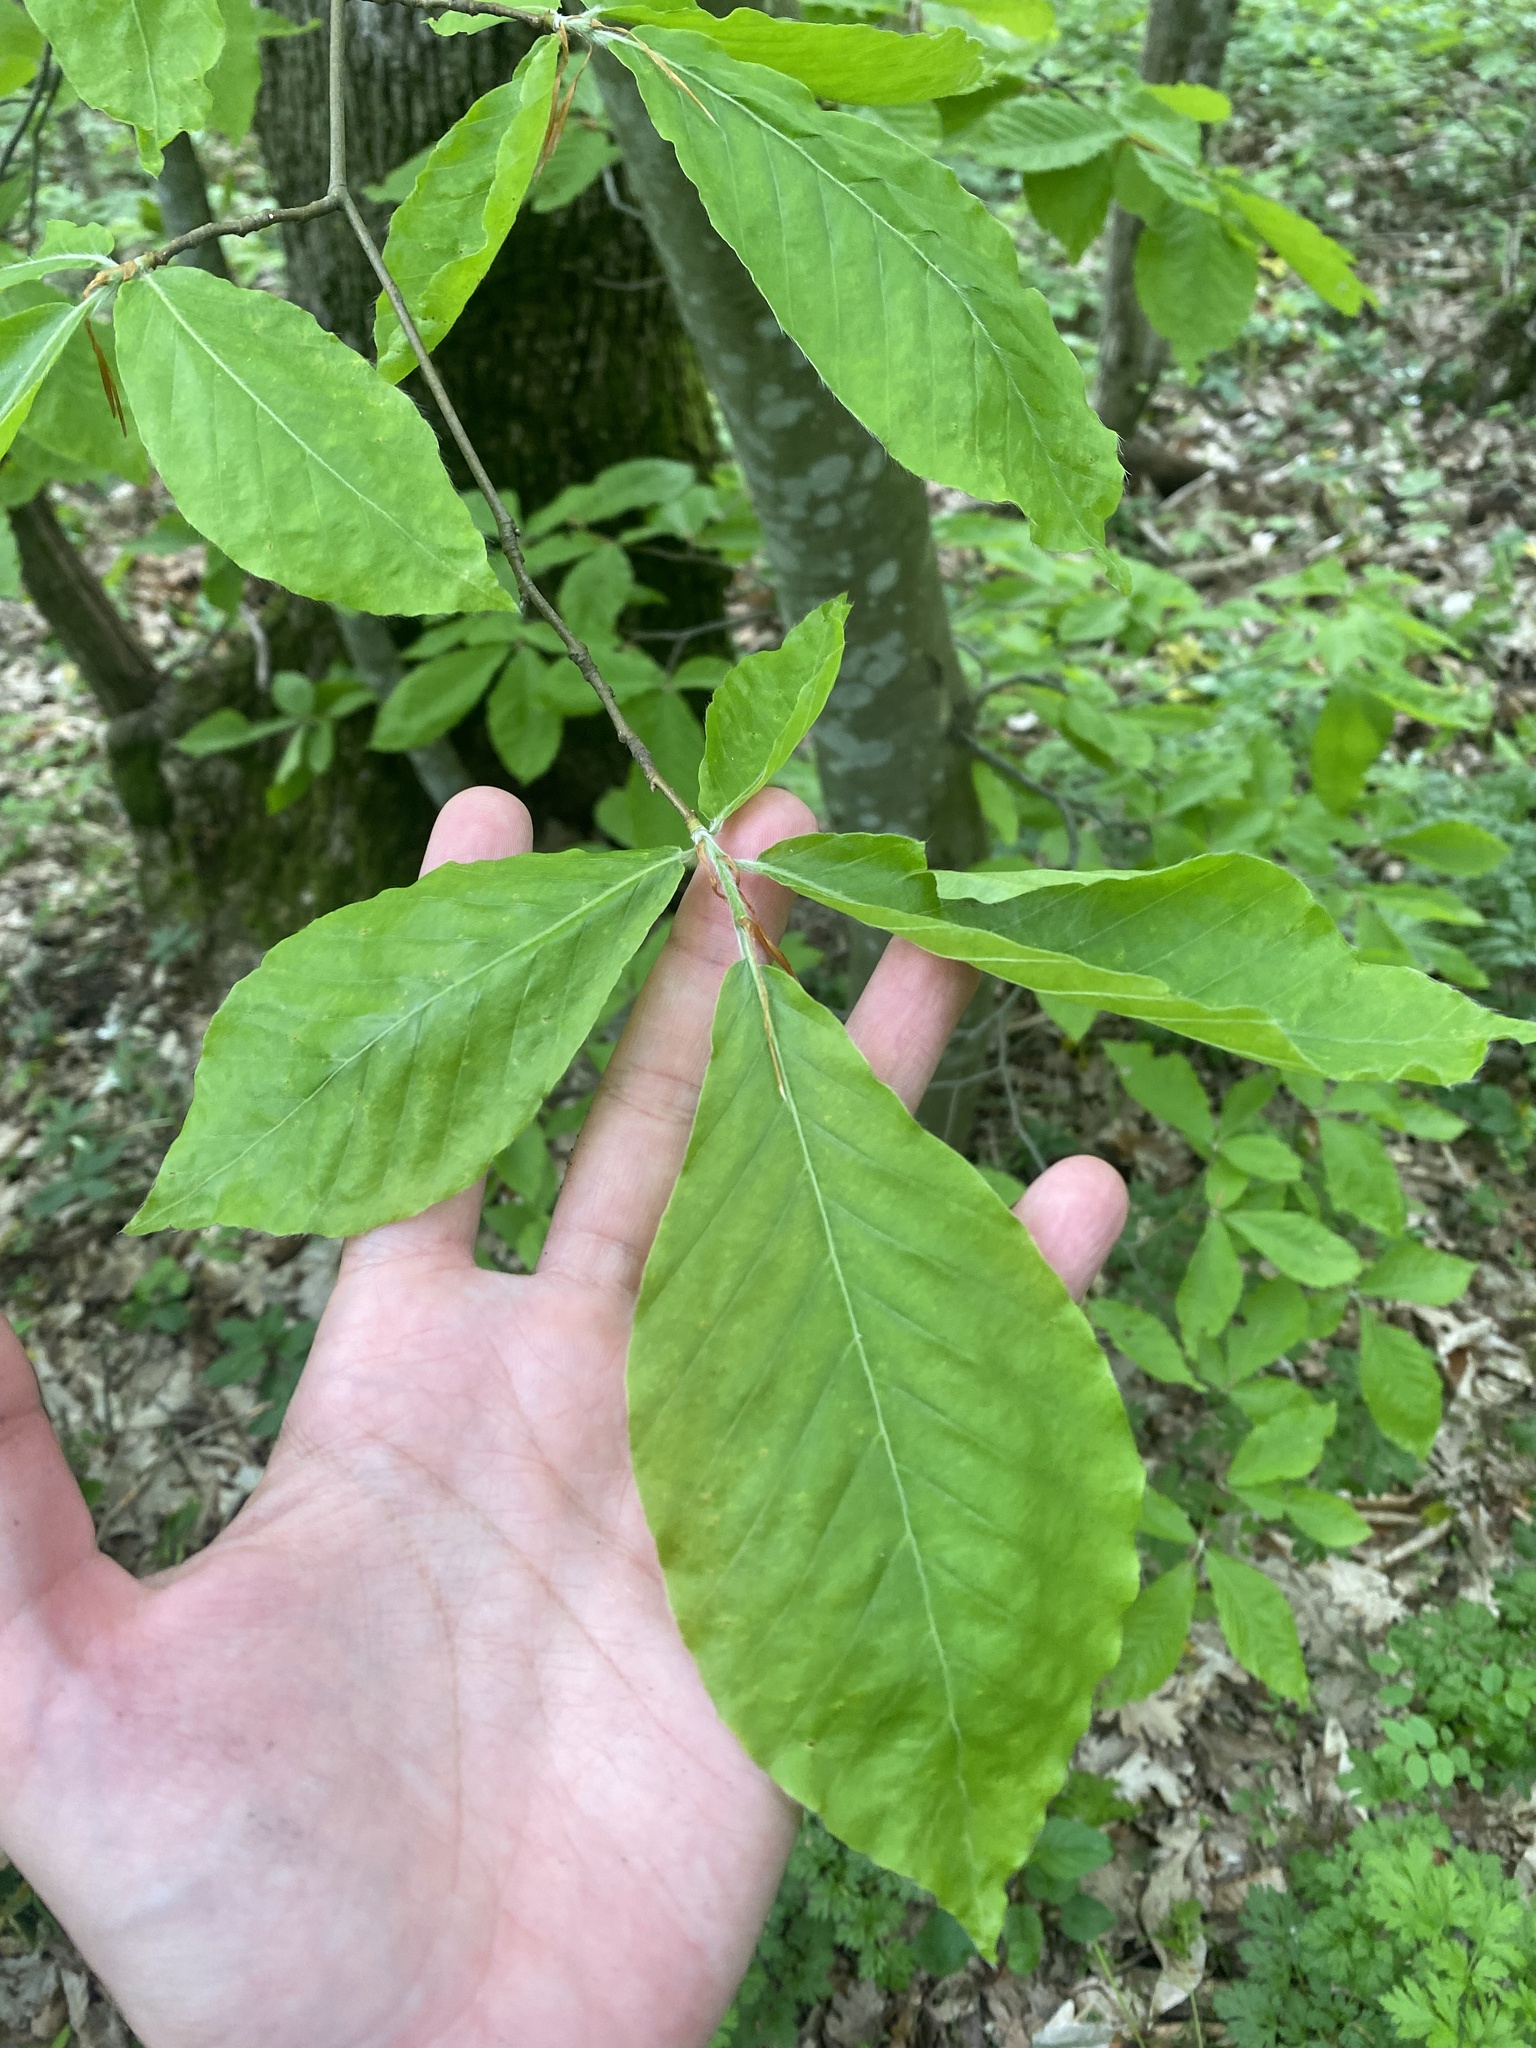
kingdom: Plantae
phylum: Tracheophyta
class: Magnoliopsida
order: Fagales
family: Fagaceae
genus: Fagus
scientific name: Fagus orientalis
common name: Oriental beech
